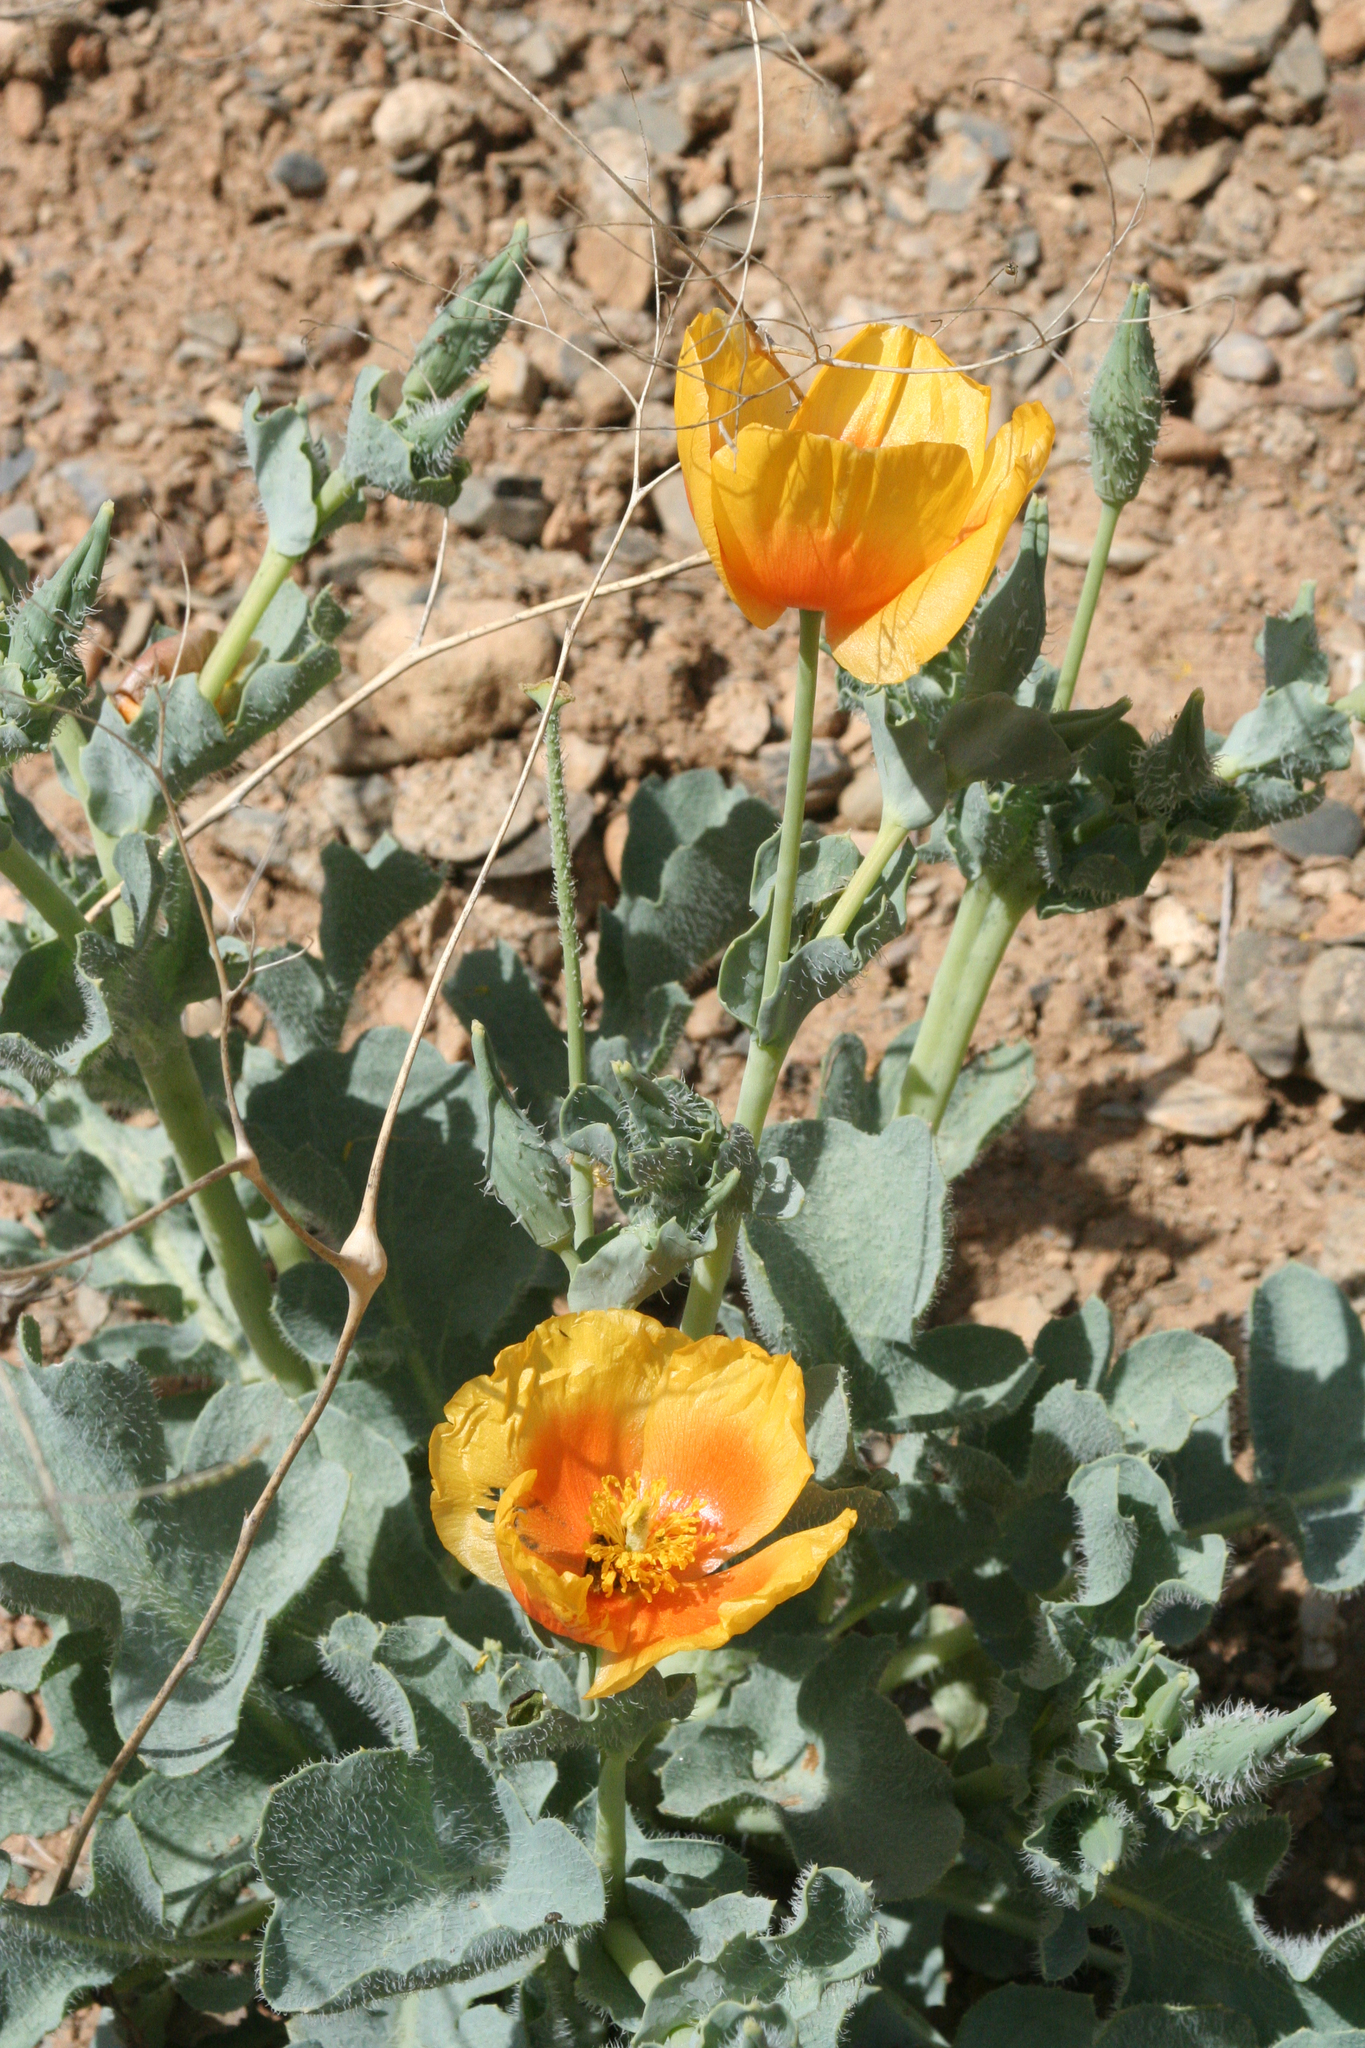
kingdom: Plantae
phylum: Tracheophyta
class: Magnoliopsida
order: Ranunculales
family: Papaveraceae
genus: Glaucium
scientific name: Glaucium calycinum
